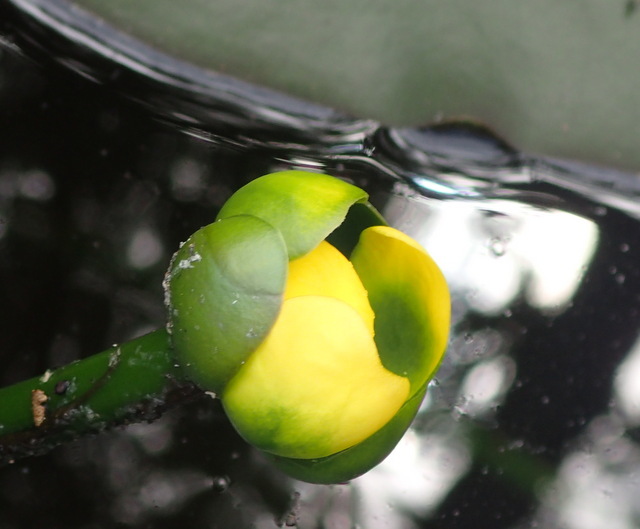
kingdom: Plantae
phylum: Tracheophyta
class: Magnoliopsida
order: Nymphaeales
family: Nymphaeaceae
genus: Nuphar
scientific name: Nuphar advena
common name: Spatter-dock
